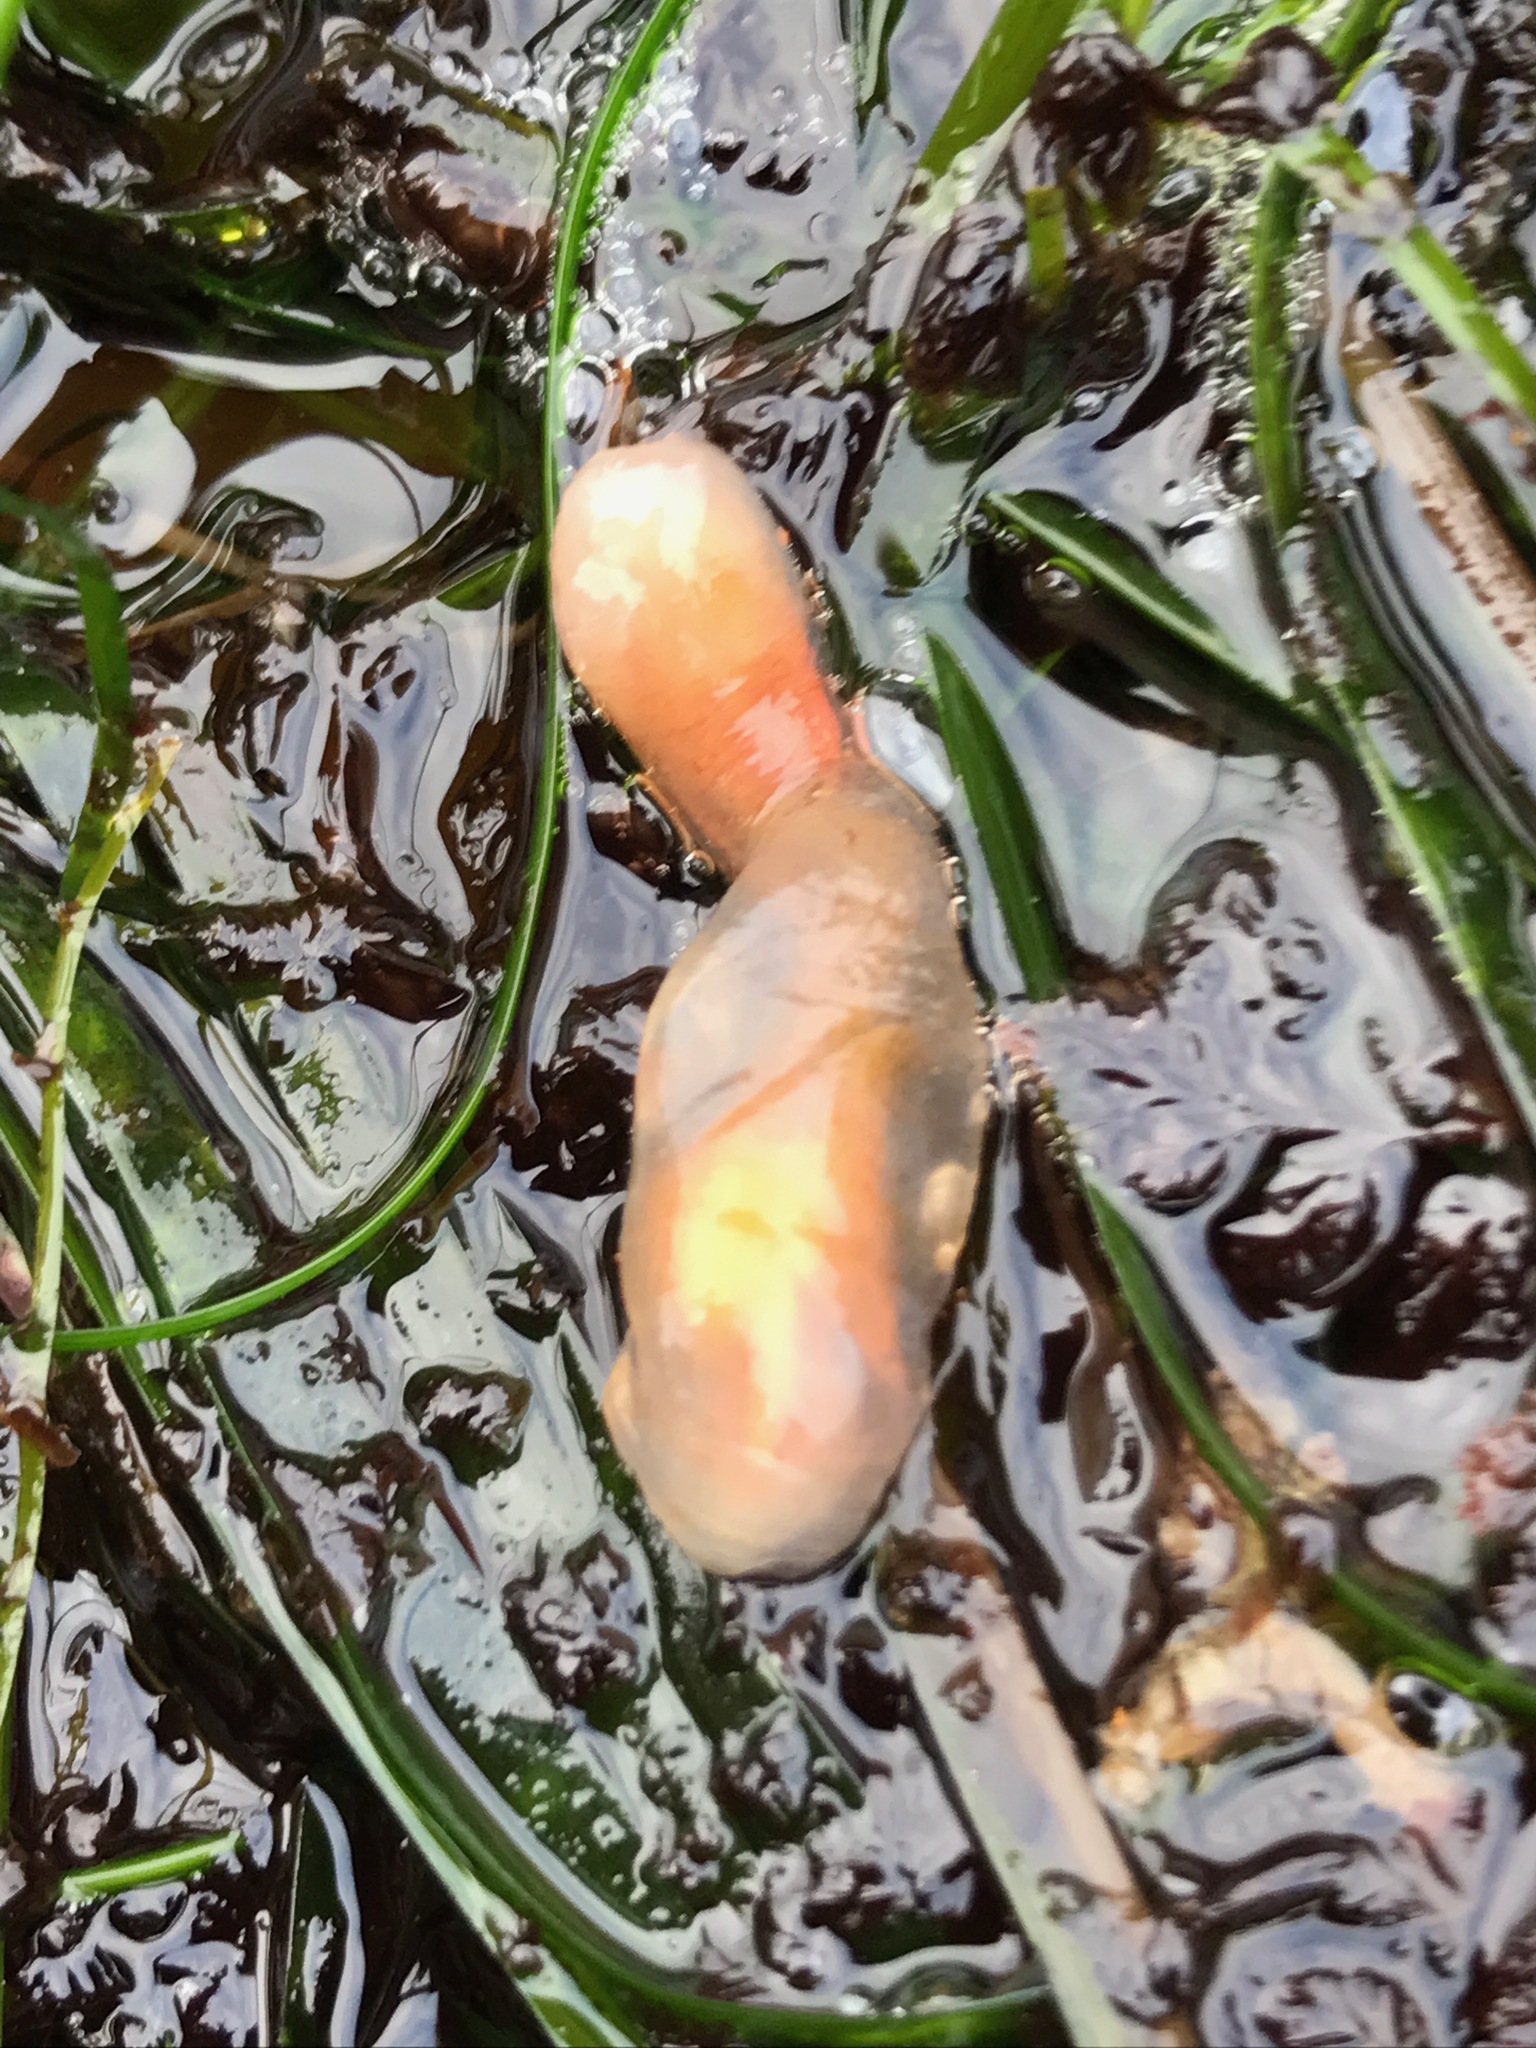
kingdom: Animalia
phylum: Chordata
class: Ascidiacea
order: Aplousobranchia
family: Clavelinidae
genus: Clavelina
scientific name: Clavelina huntsmani
